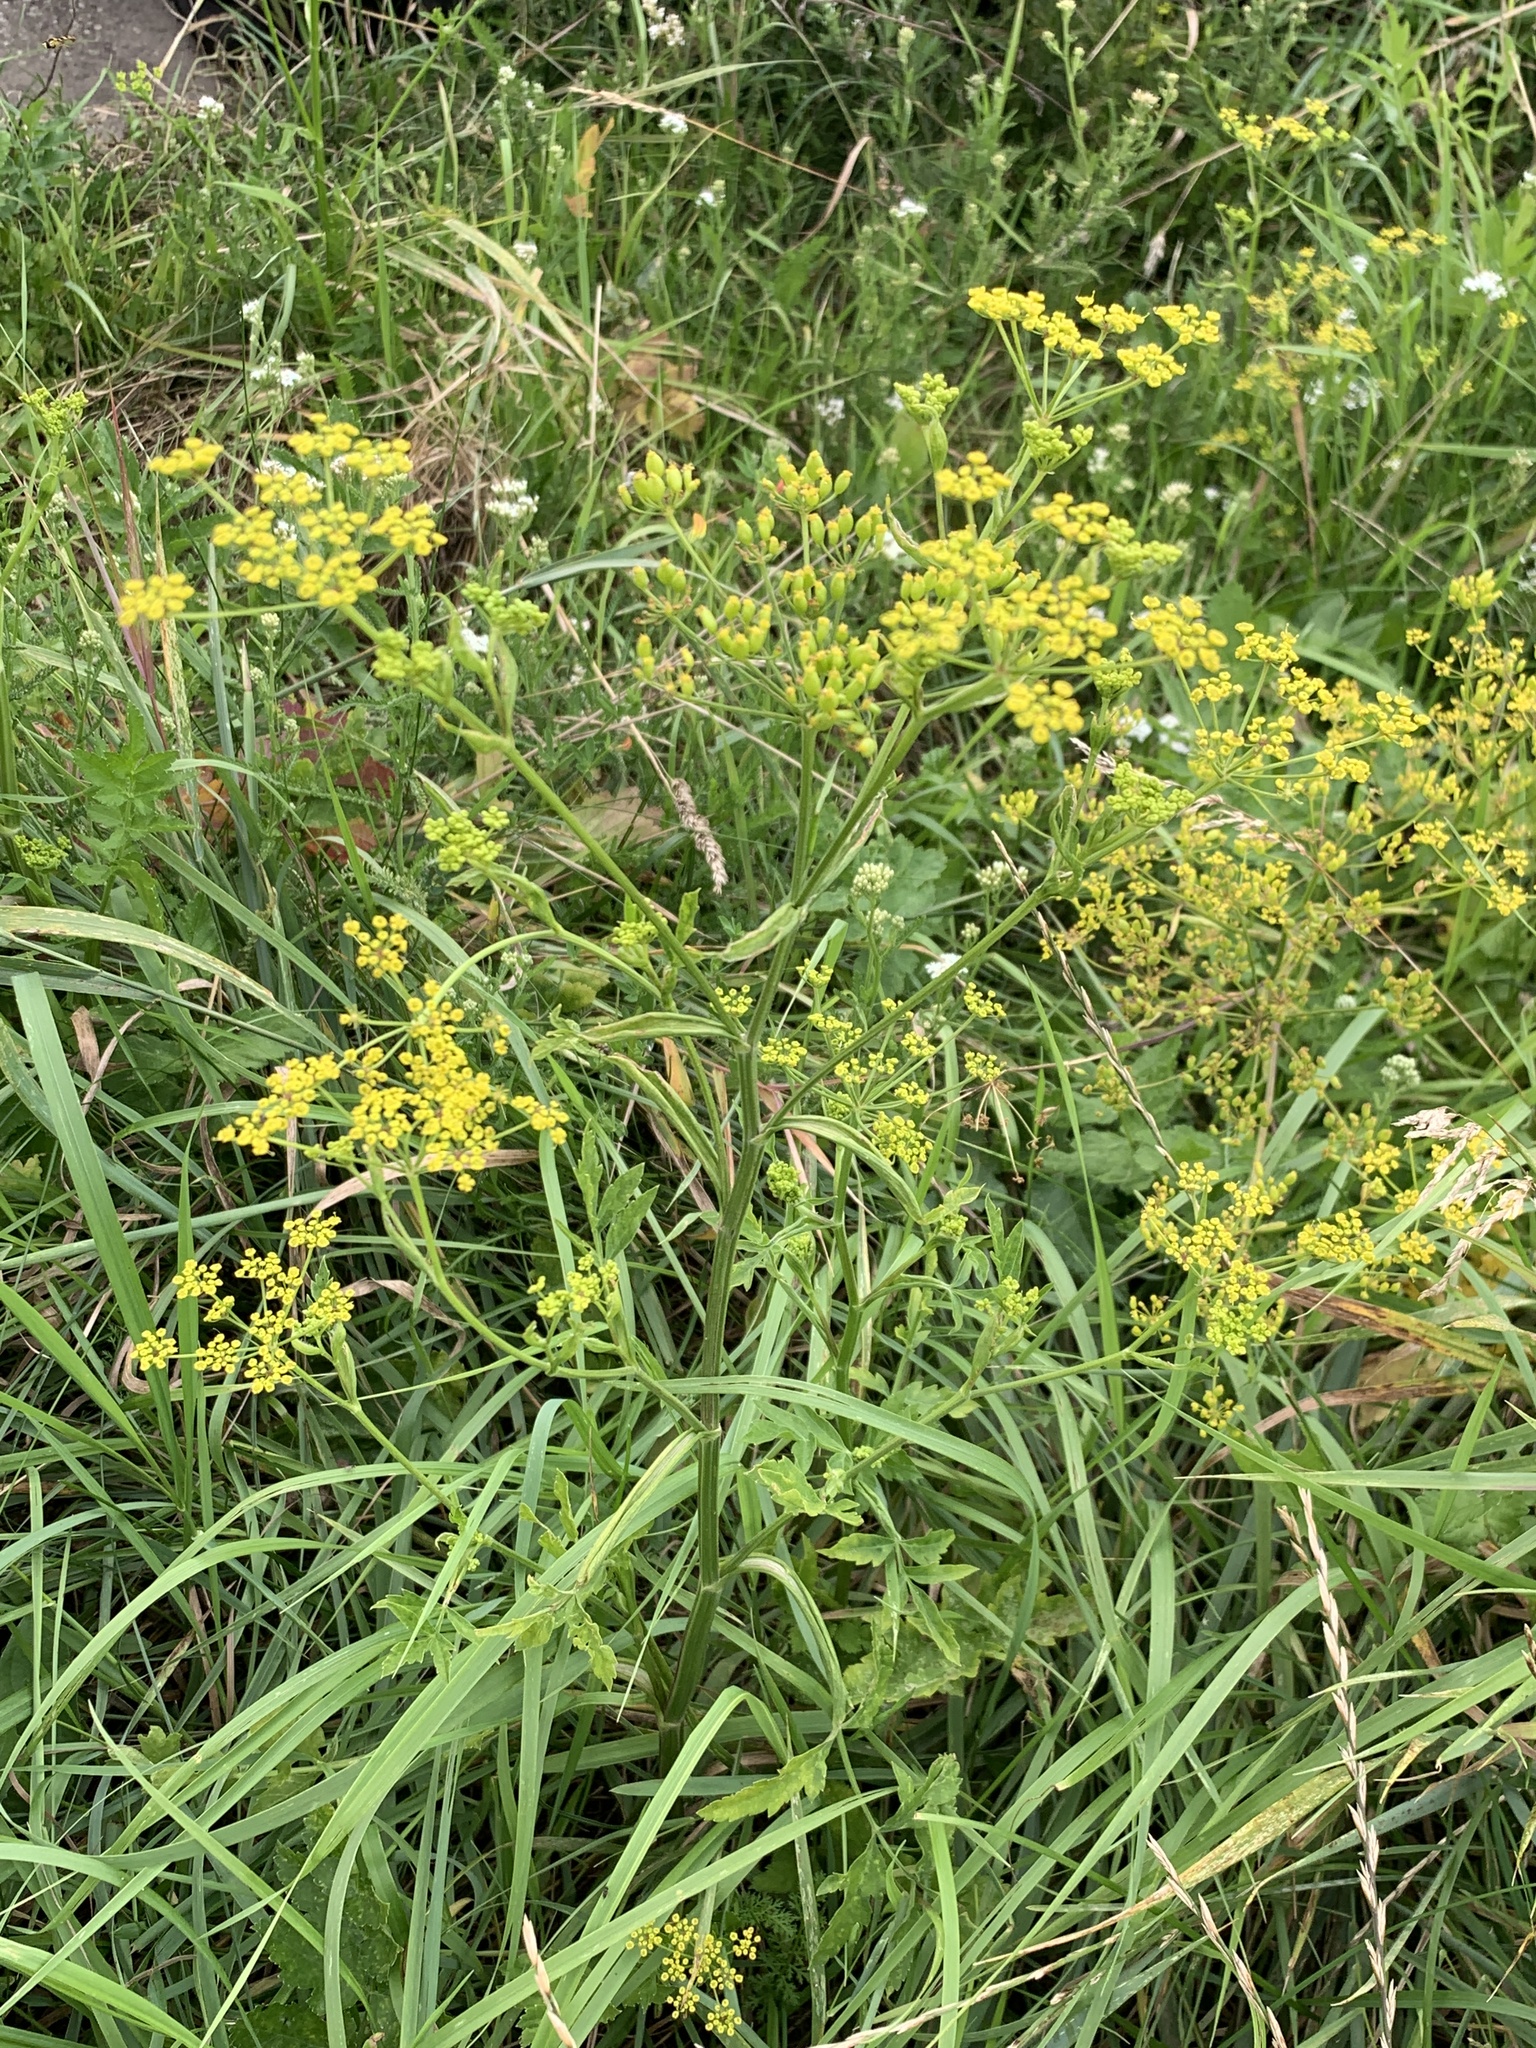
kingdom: Plantae
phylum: Tracheophyta
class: Magnoliopsida
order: Apiales
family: Apiaceae
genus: Pastinaca
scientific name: Pastinaca sativa
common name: Wild parsnip
